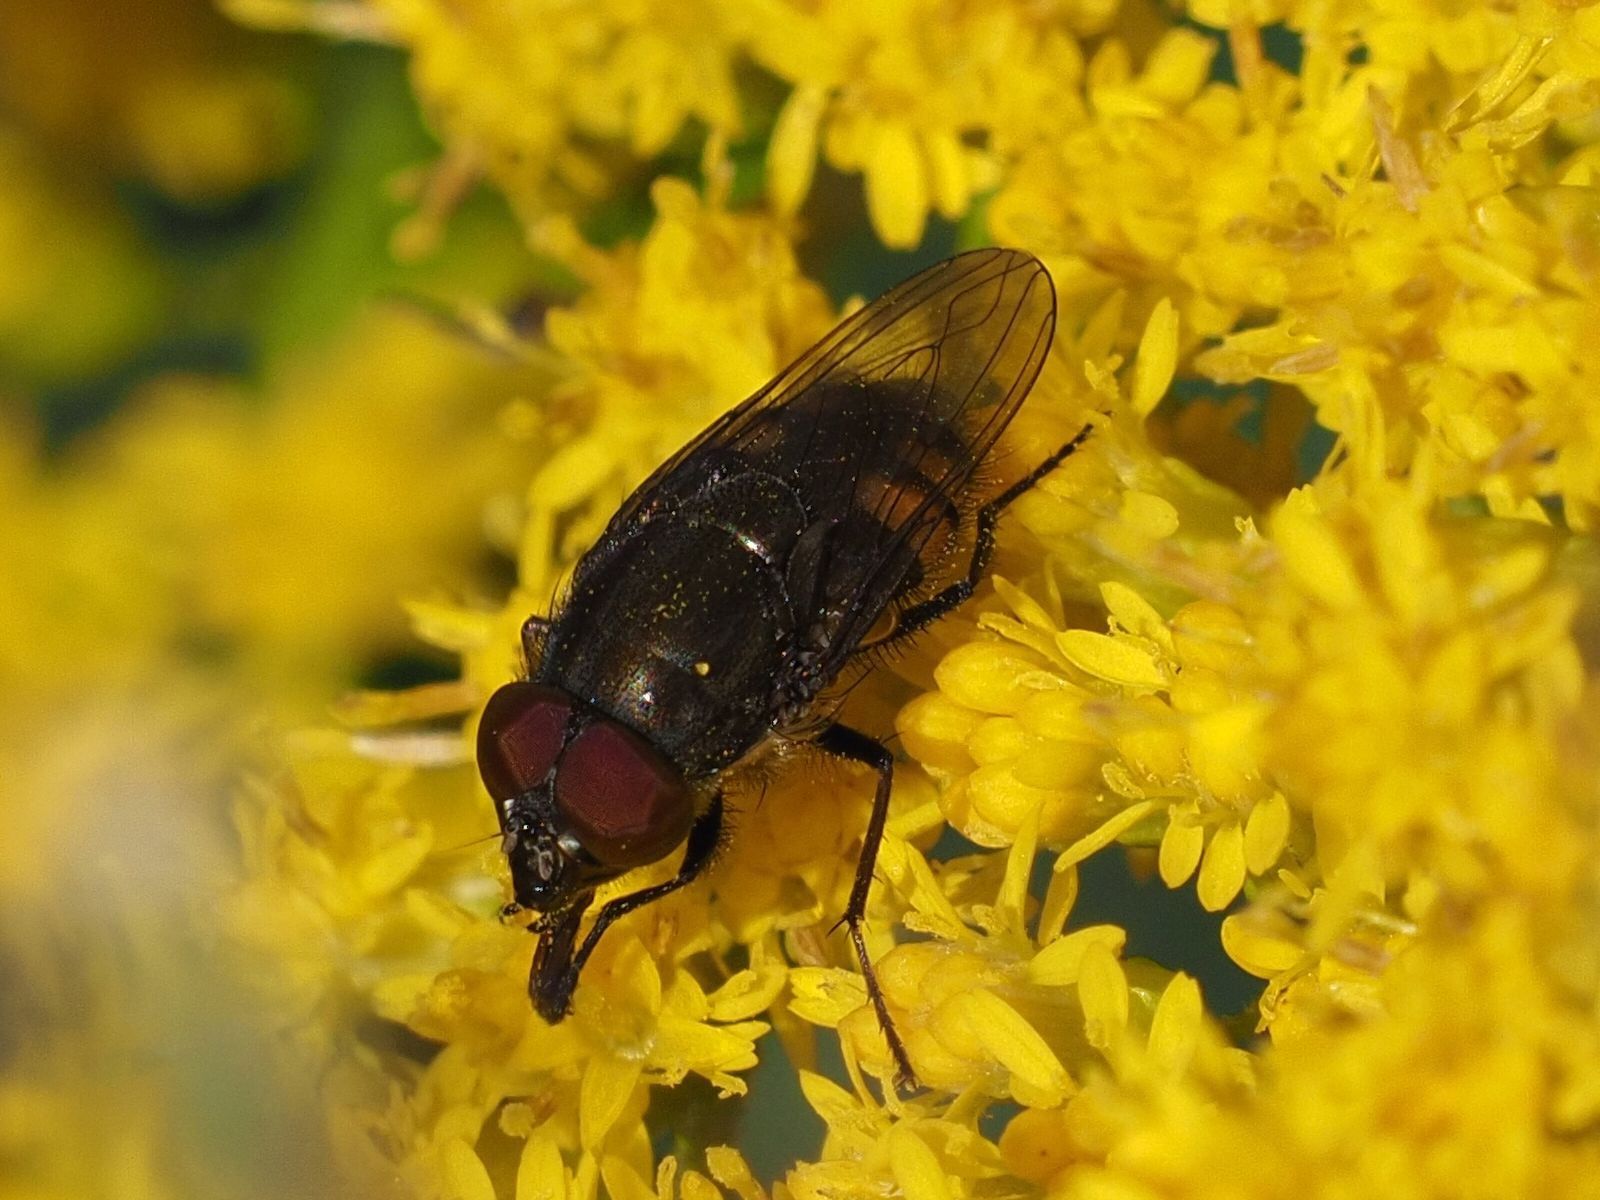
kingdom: Animalia
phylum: Arthropoda
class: Insecta
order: Diptera
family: Calliphoridae
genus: Stomorhina
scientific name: Stomorhina lunata
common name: Locust blowfly
